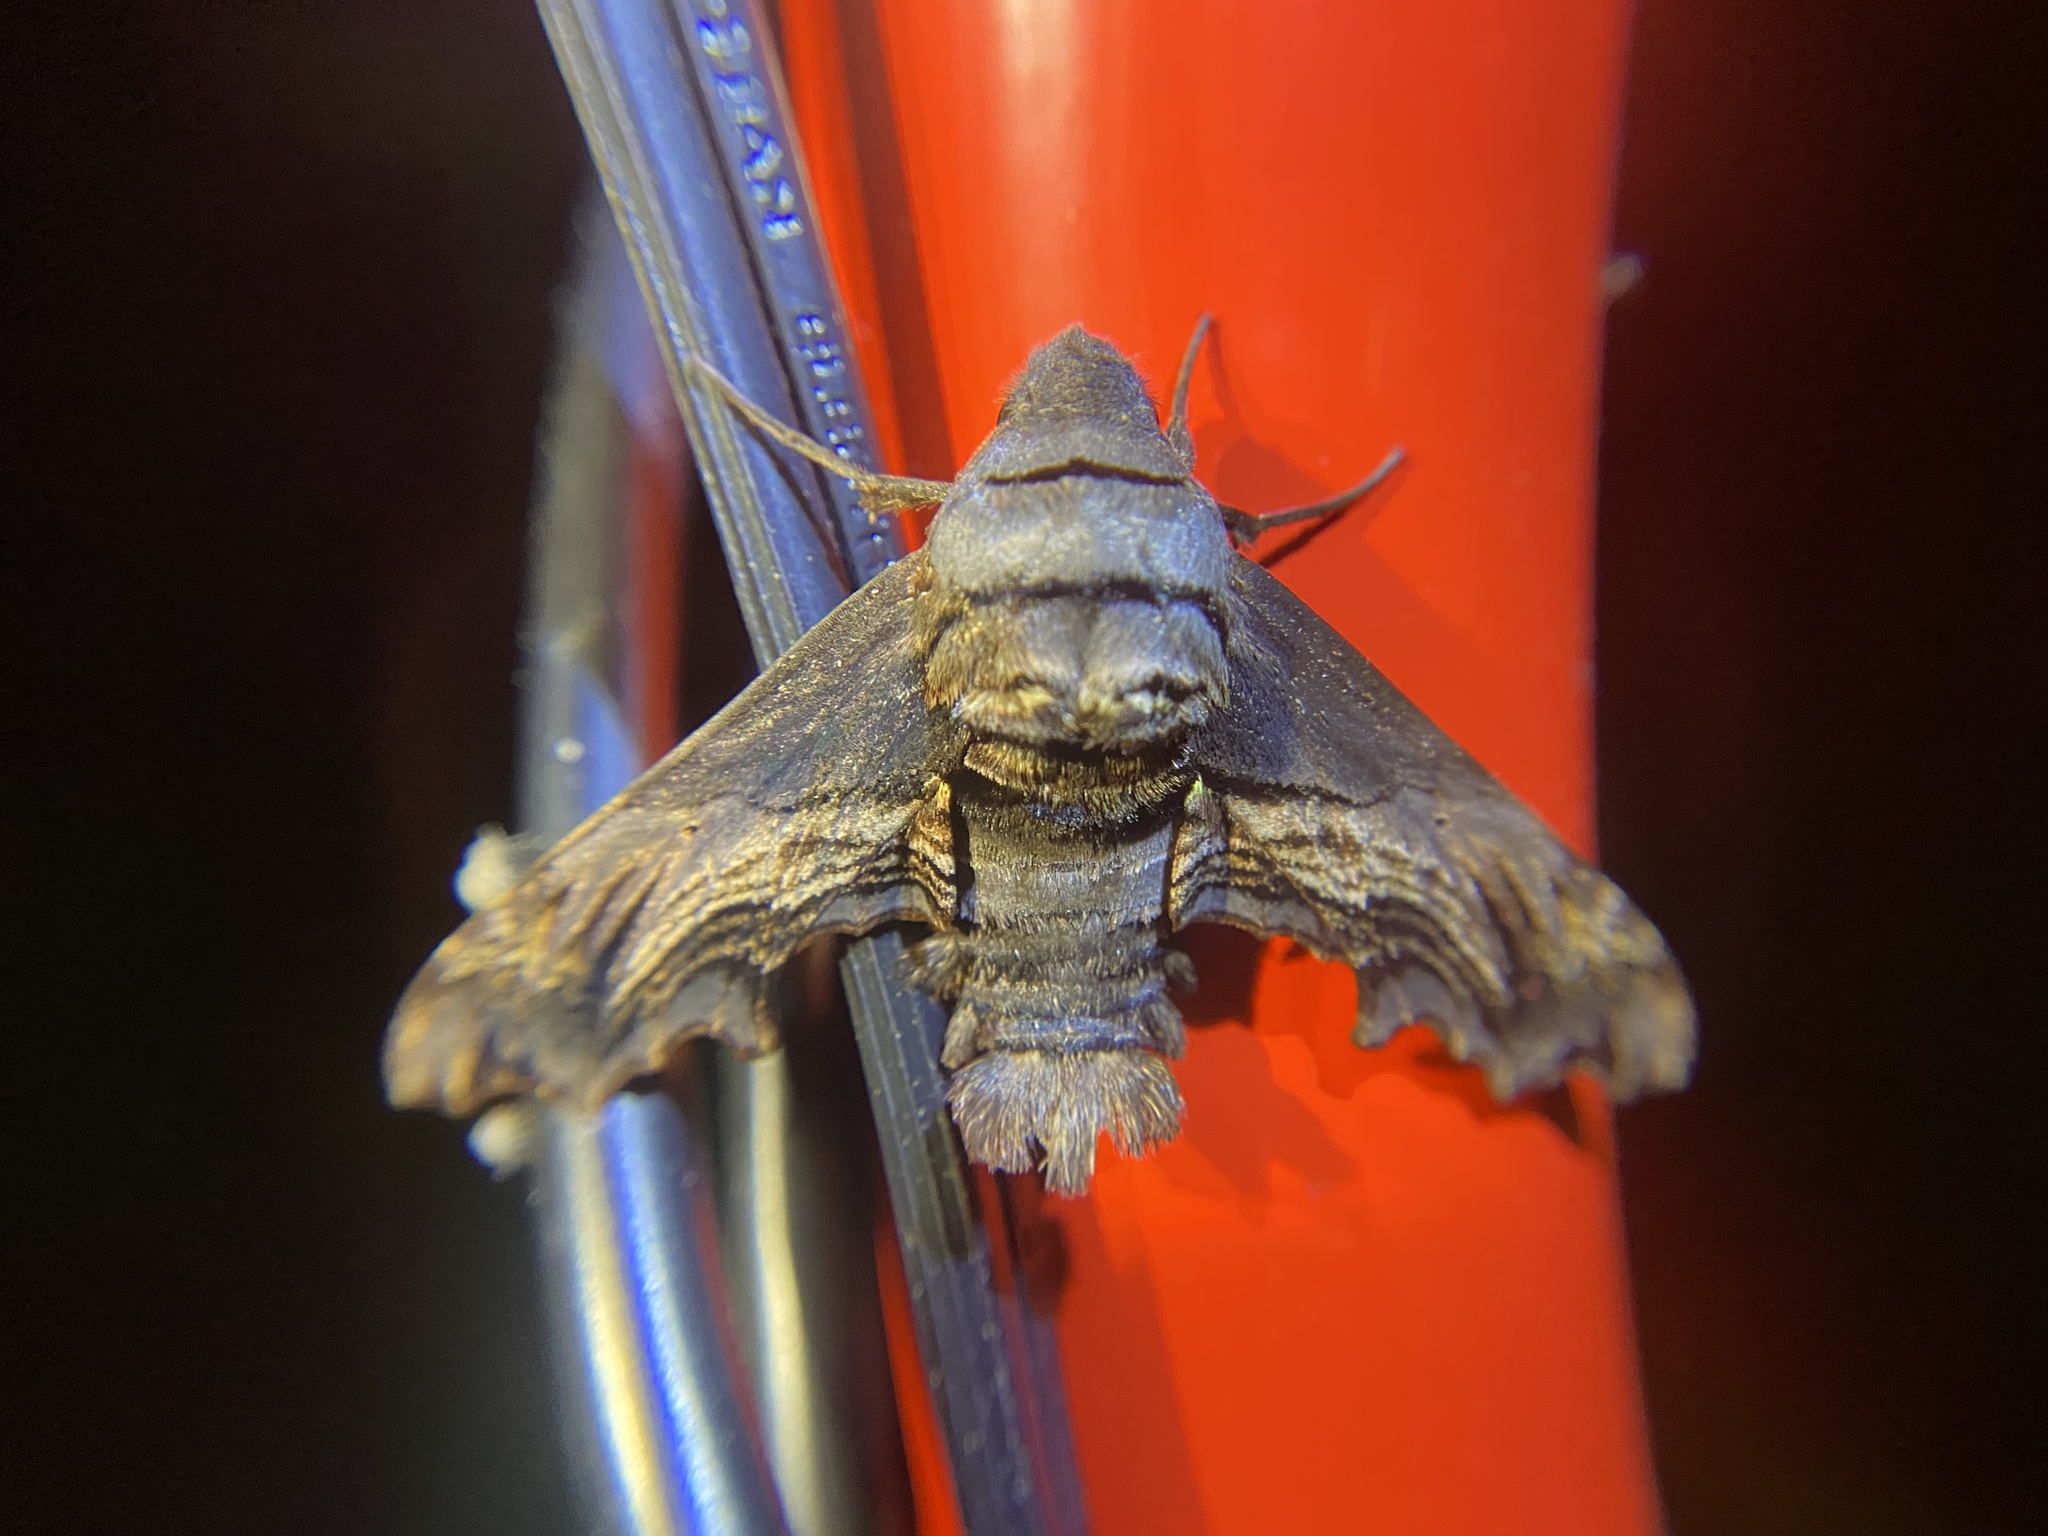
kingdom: Animalia
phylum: Arthropoda
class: Insecta
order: Lepidoptera
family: Sphingidae
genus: Sphecodina
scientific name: Sphecodina abbottii
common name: Abbott's sphinx
